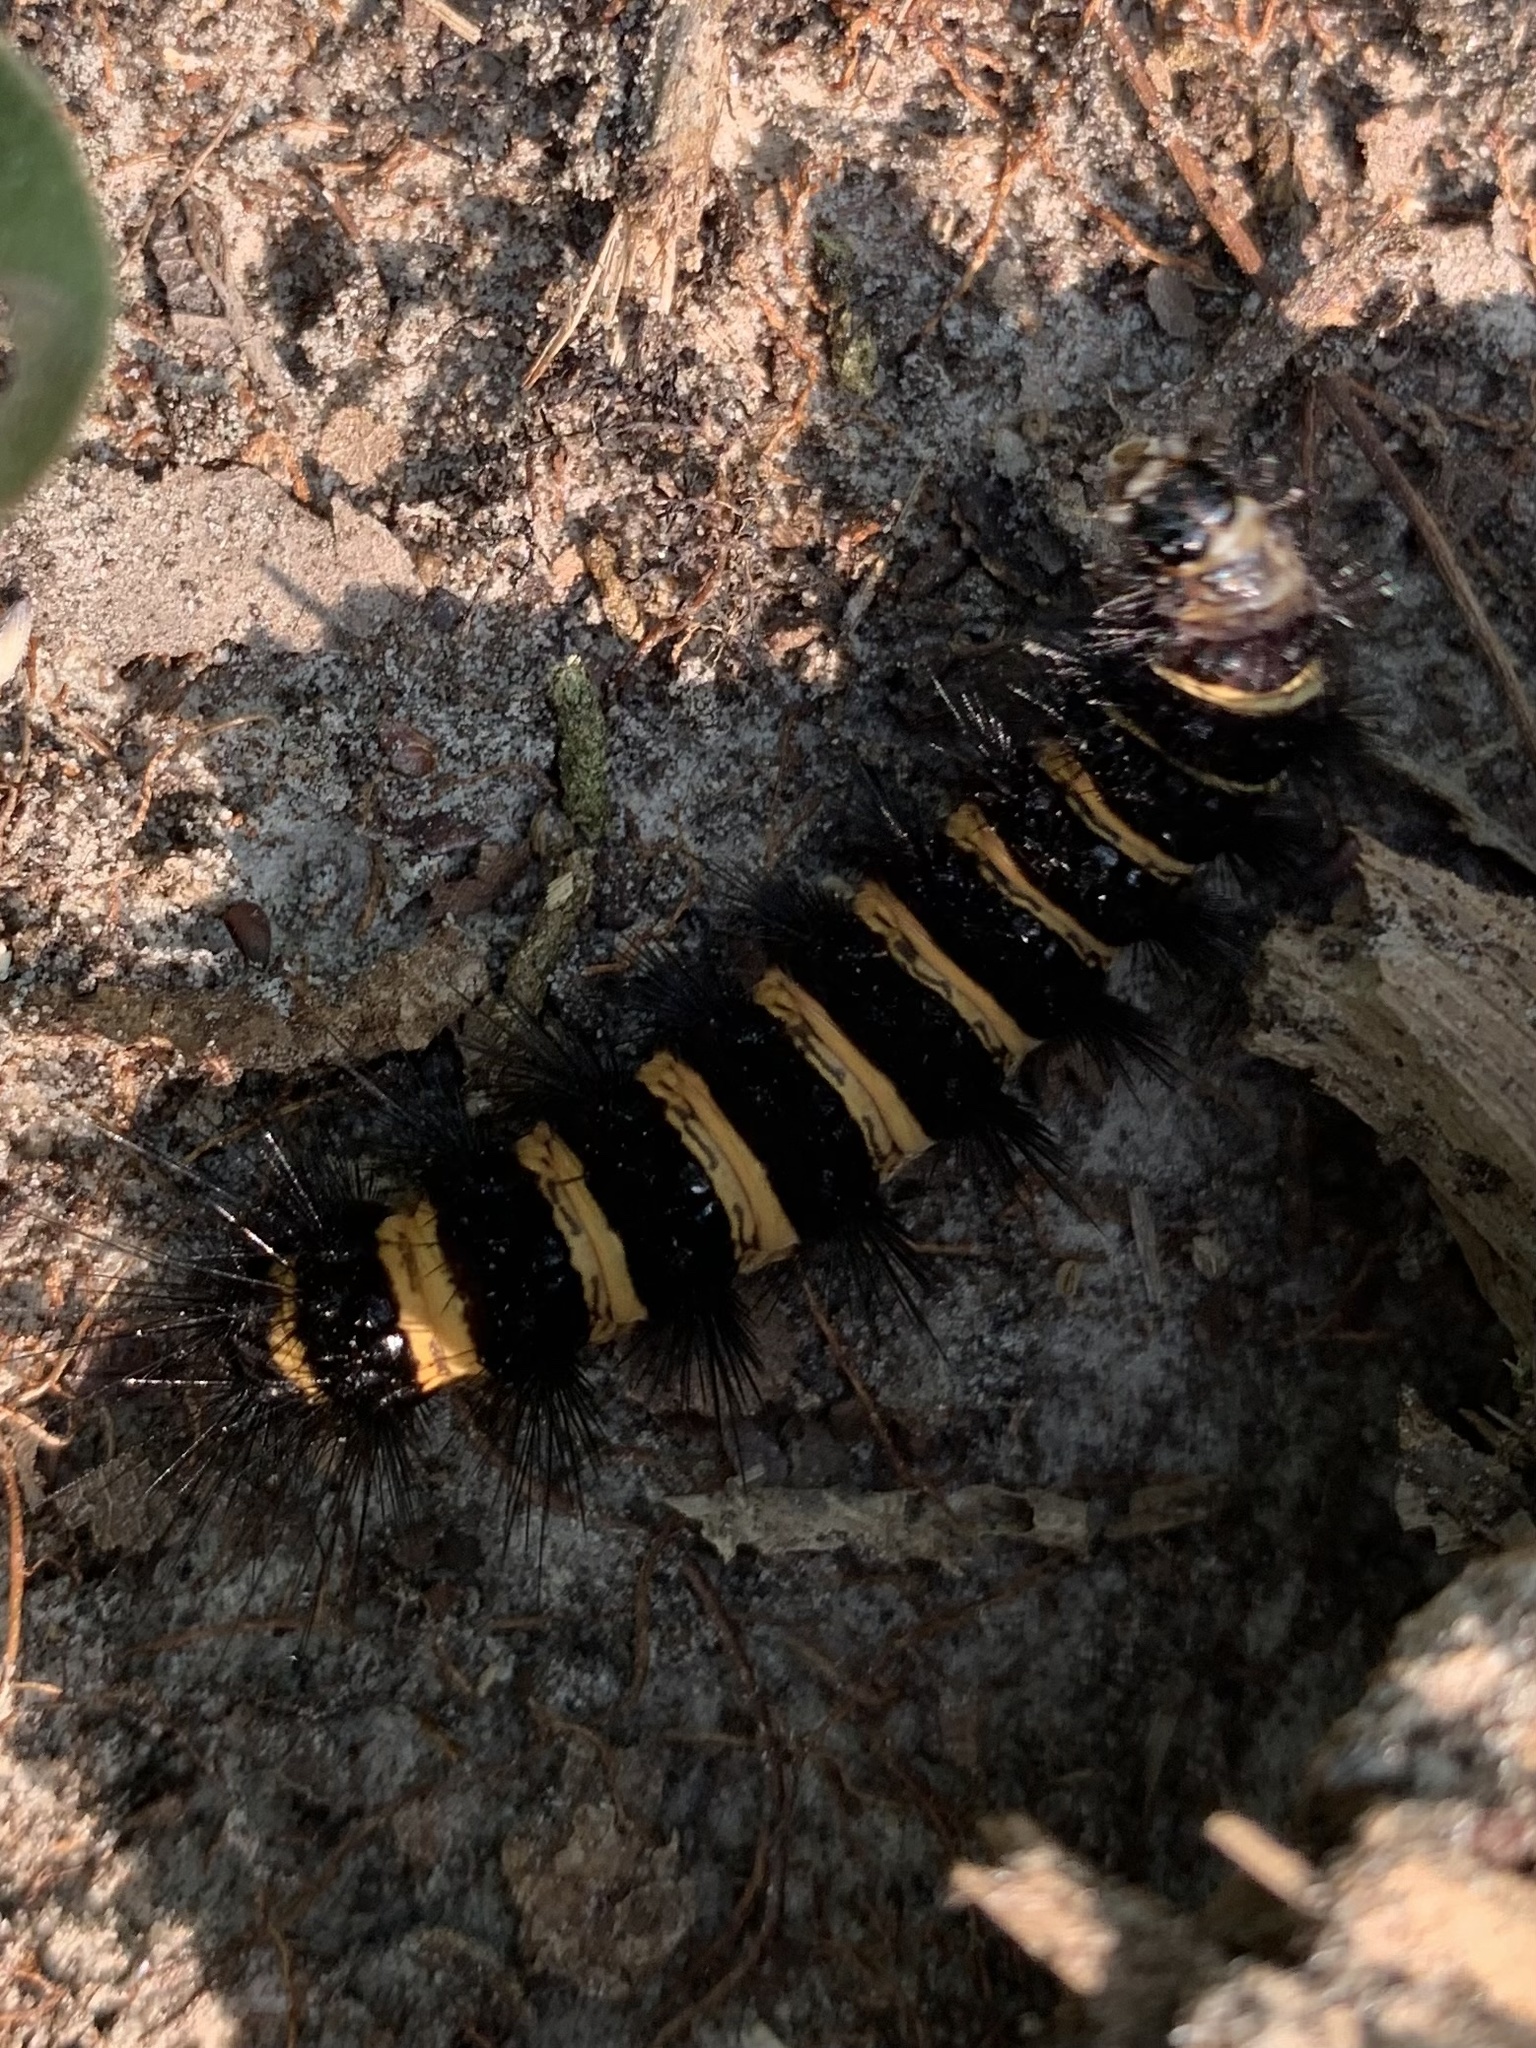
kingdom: Animalia
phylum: Arthropoda
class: Insecta
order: Lepidoptera
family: Erebidae
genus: Spilosoma
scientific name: Spilosoma congrua
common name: Agreeable tiger moth
